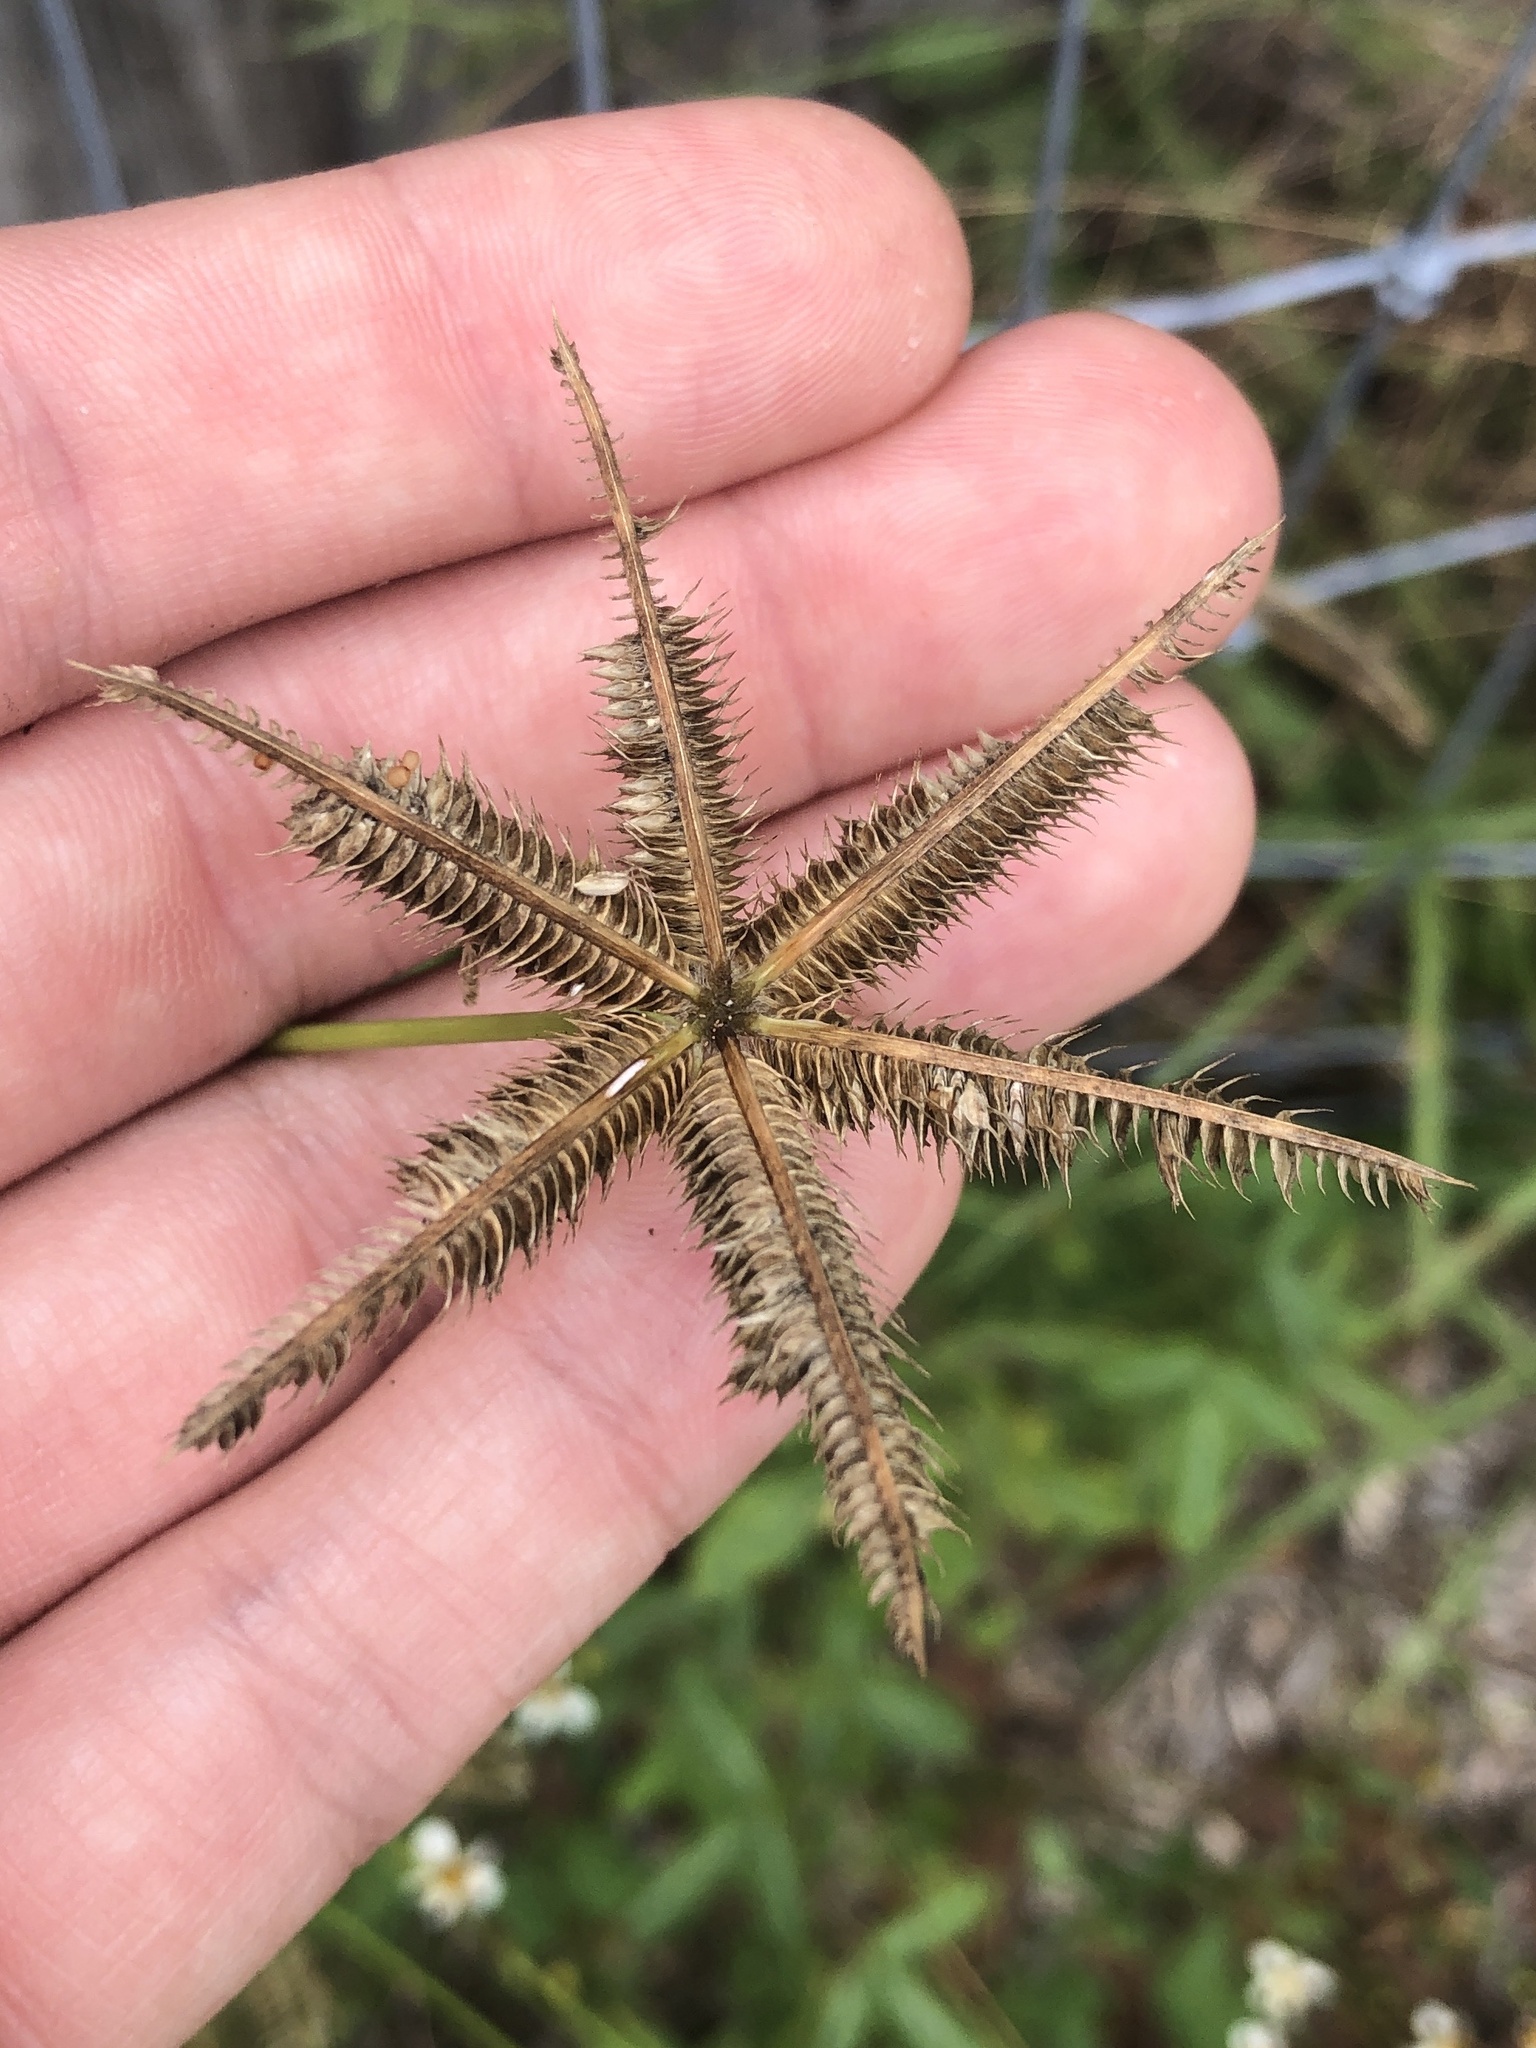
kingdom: Plantae
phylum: Tracheophyta
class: Liliopsida
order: Poales
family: Poaceae
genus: Dactyloctenium
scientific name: Dactyloctenium aegyptium
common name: Egyptian grass
